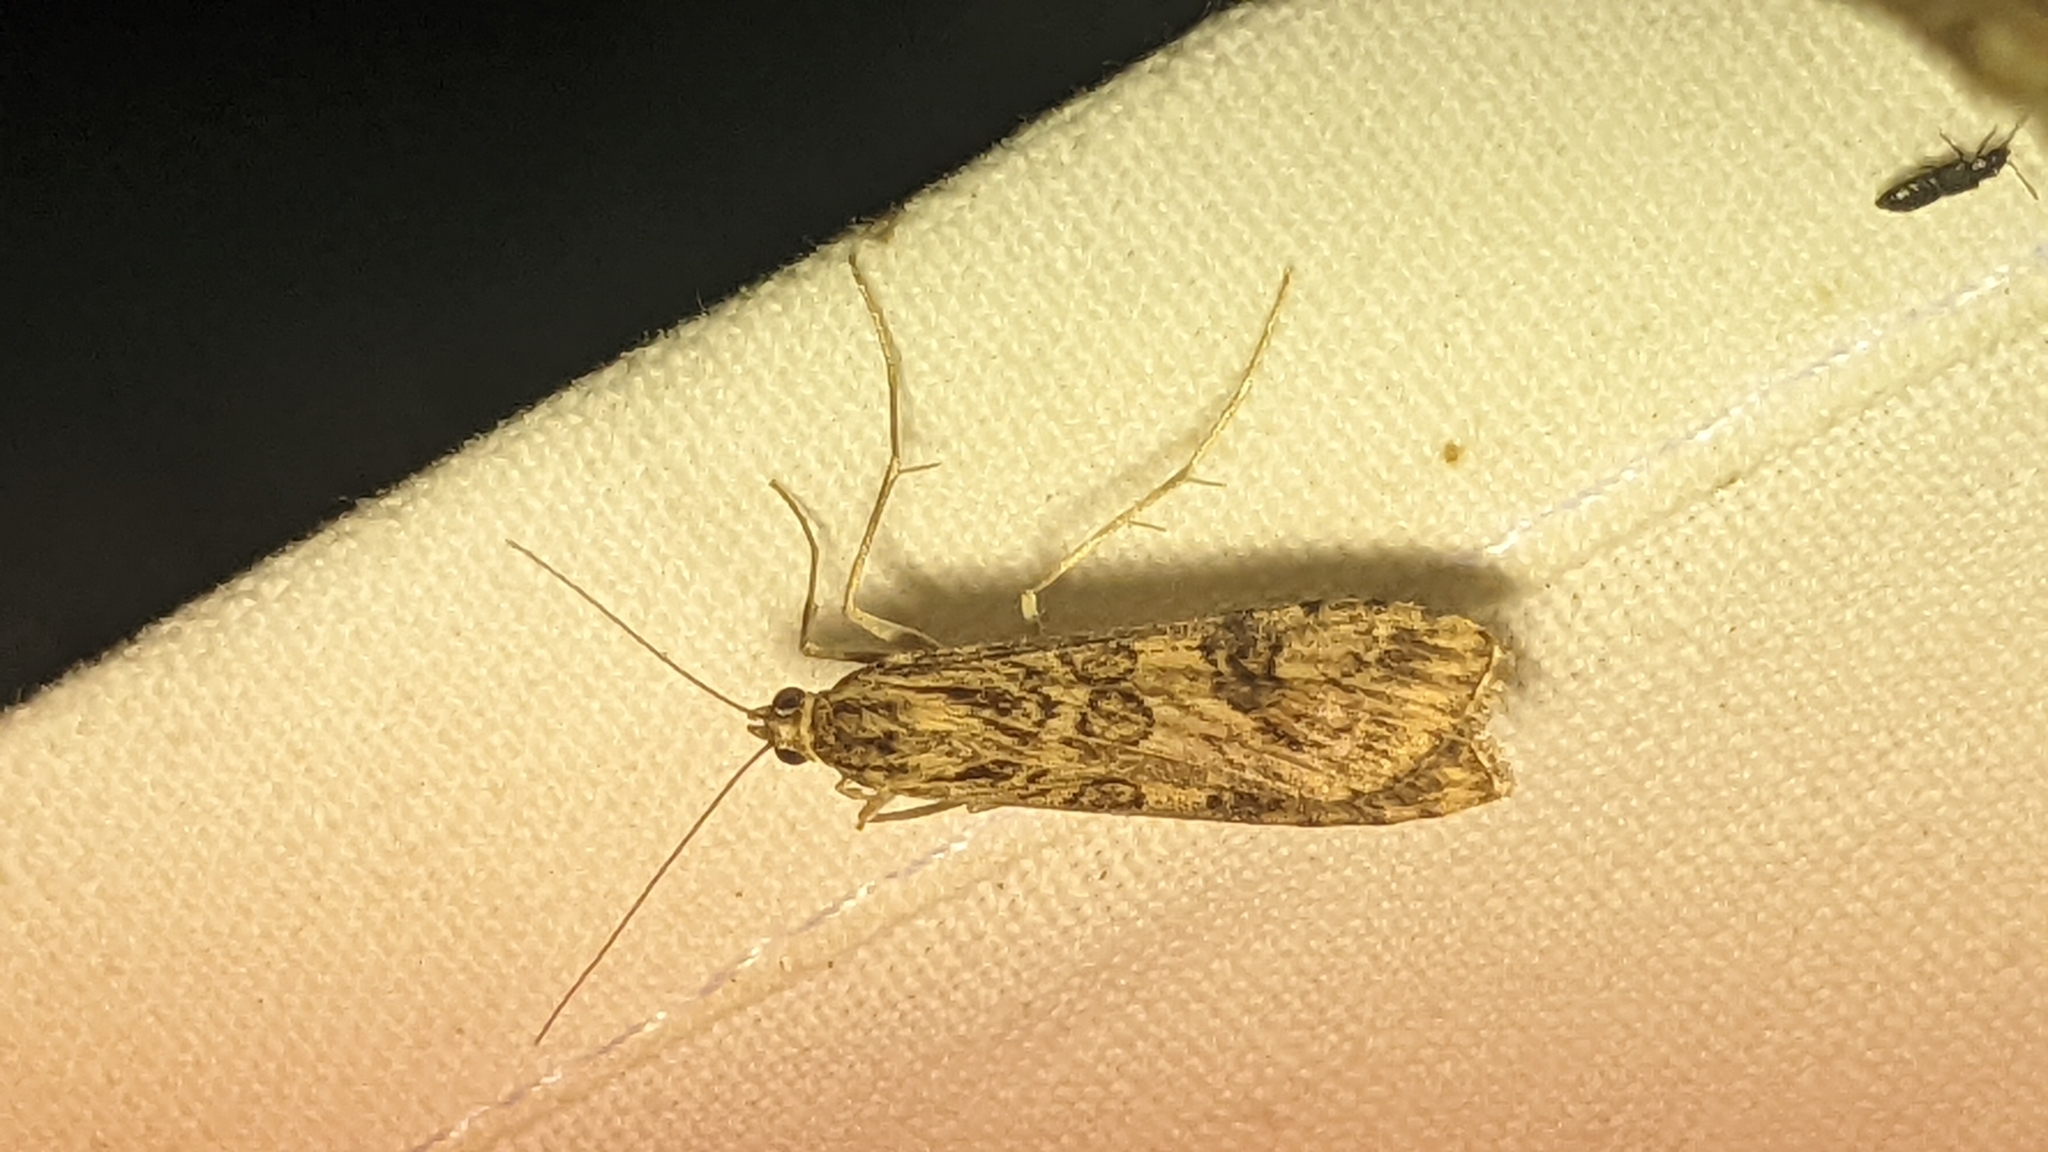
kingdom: Animalia
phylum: Arthropoda
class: Insecta
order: Lepidoptera
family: Crambidae
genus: Nomophila
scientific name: Nomophila noctuella
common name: Rush veneer
